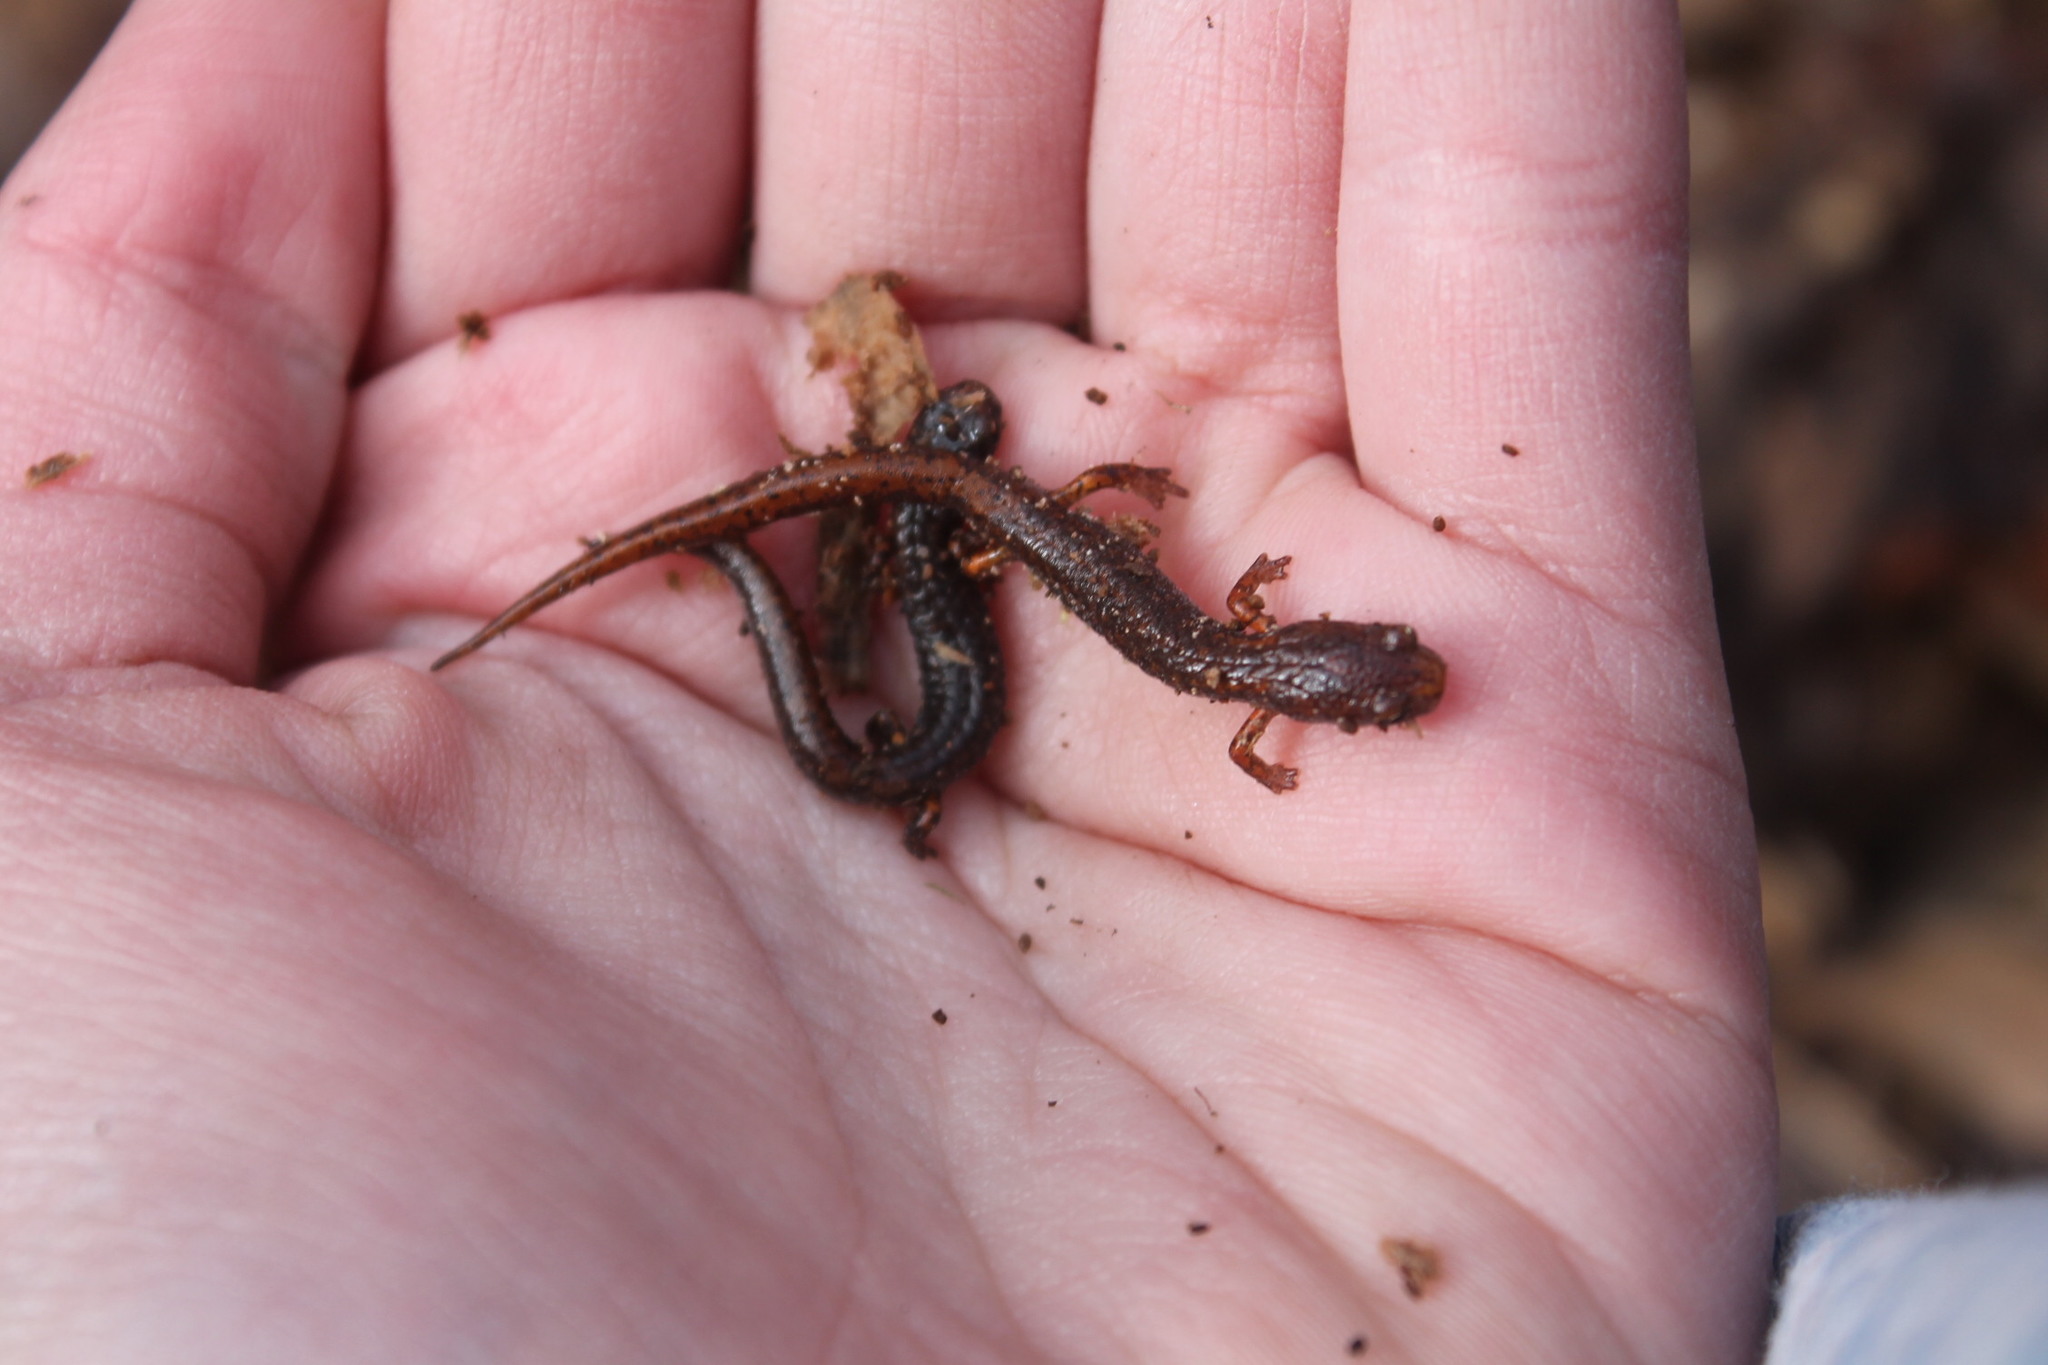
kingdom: Animalia
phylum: Chordata
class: Amphibia
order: Caudata
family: Plethodontidae
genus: Hemidactylium
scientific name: Hemidactylium scutatum
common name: Four-toed salamander
